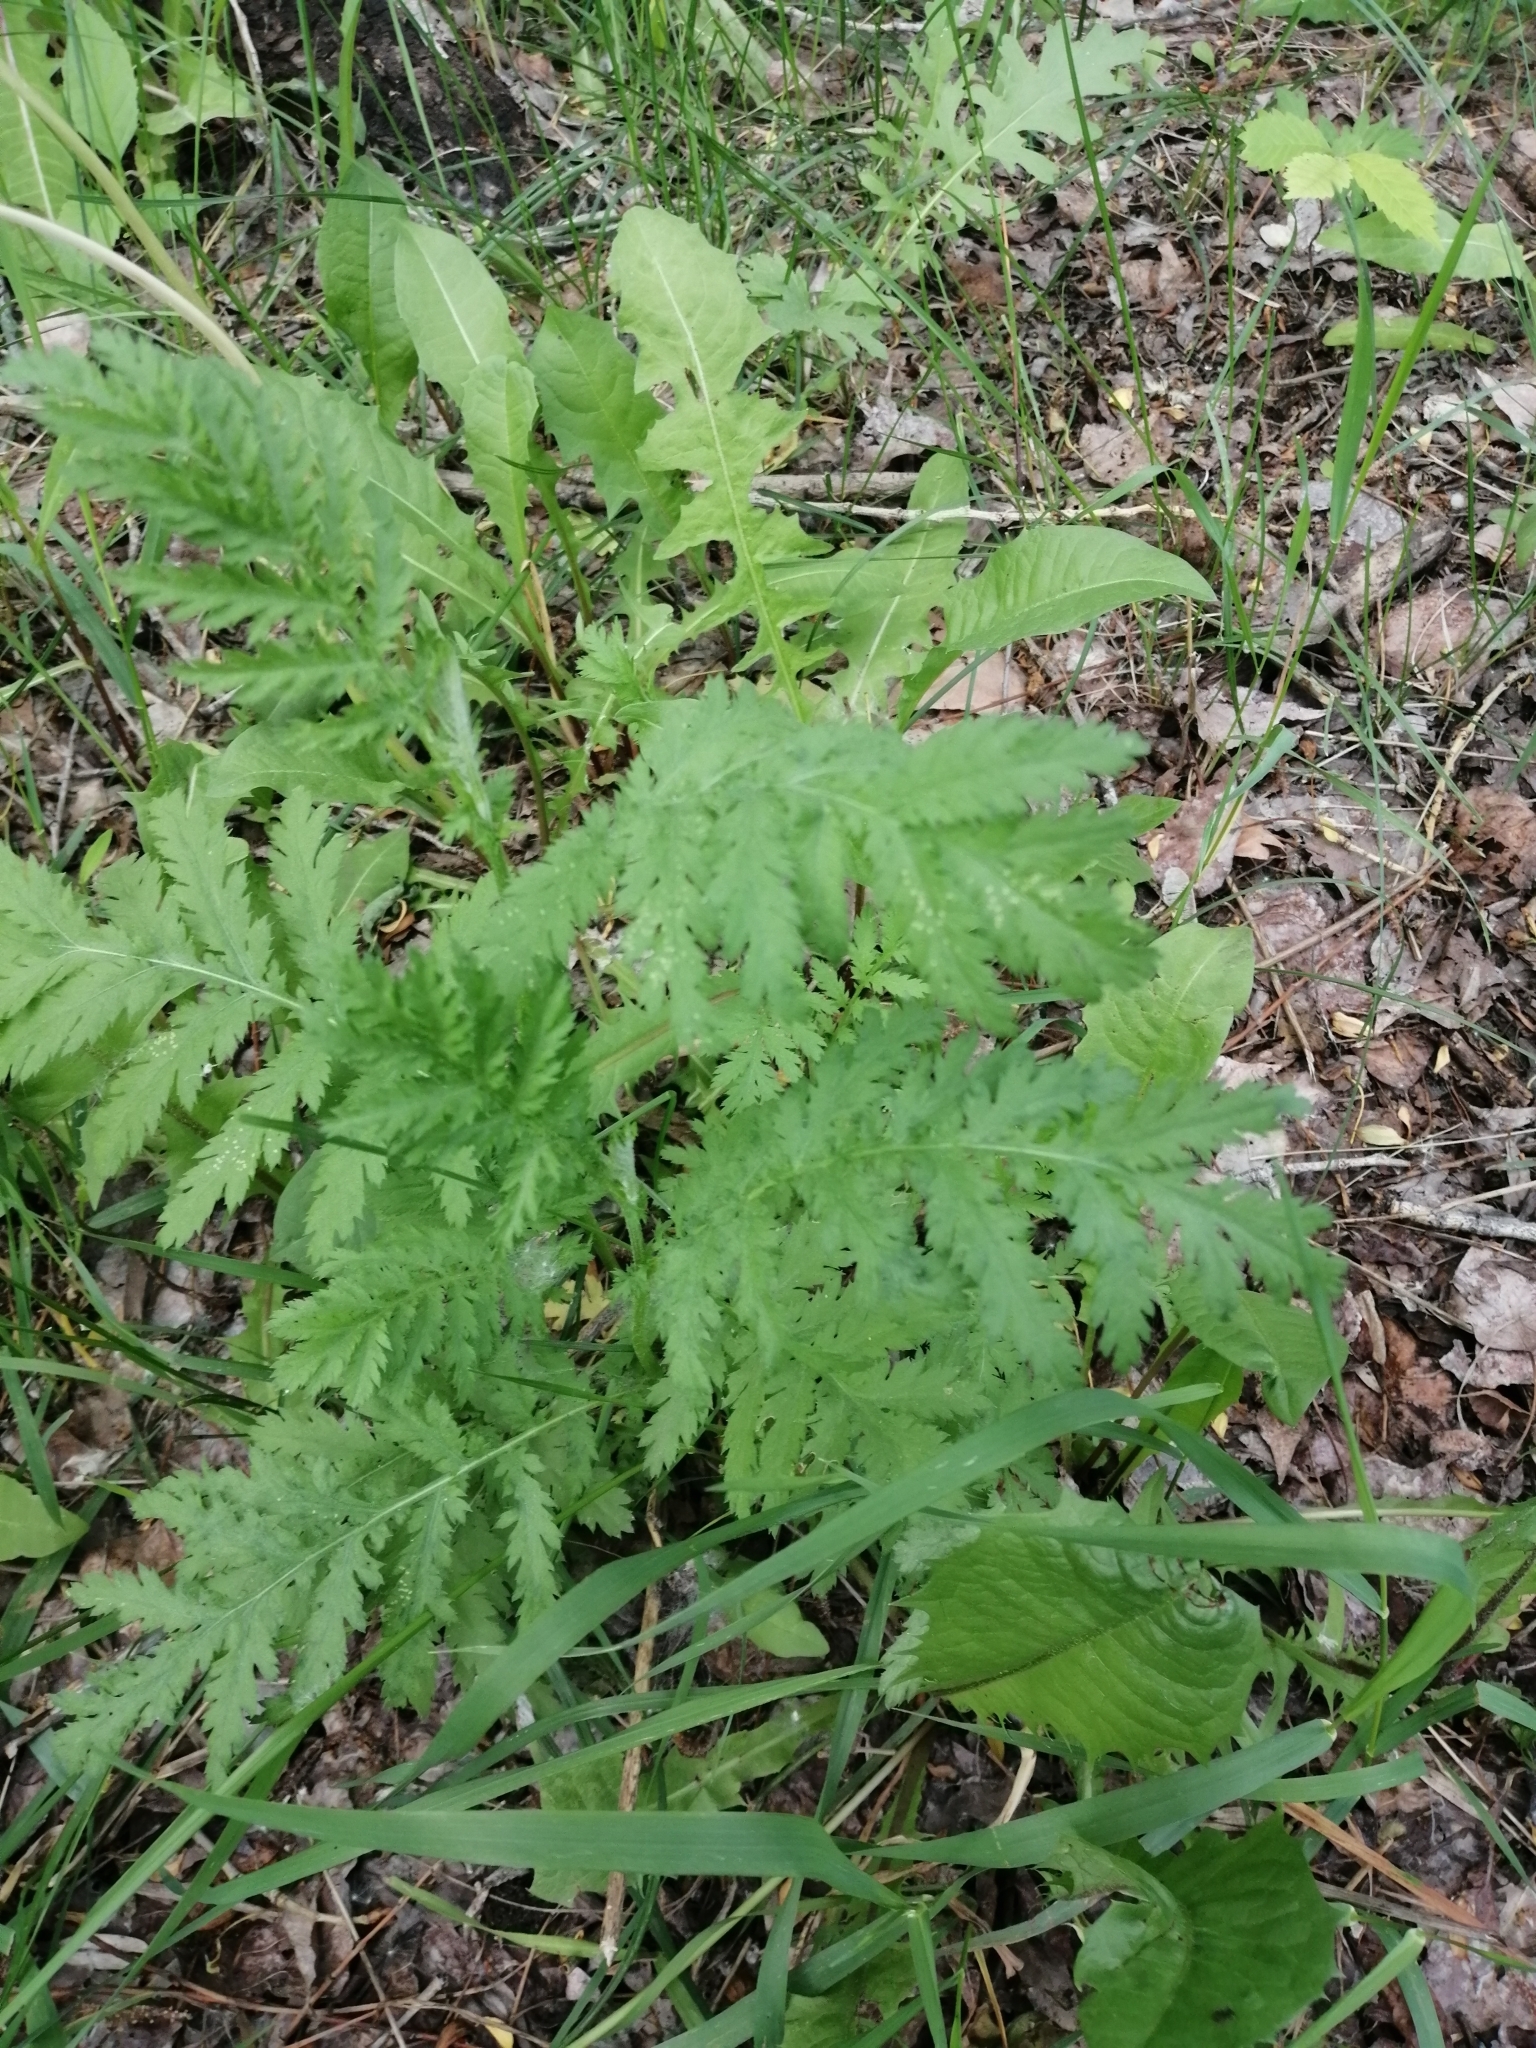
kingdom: Plantae
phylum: Tracheophyta
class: Magnoliopsida
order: Asterales
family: Asteraceae
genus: Tanacetum
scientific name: Tanacetum vulgare
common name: Common tansy
